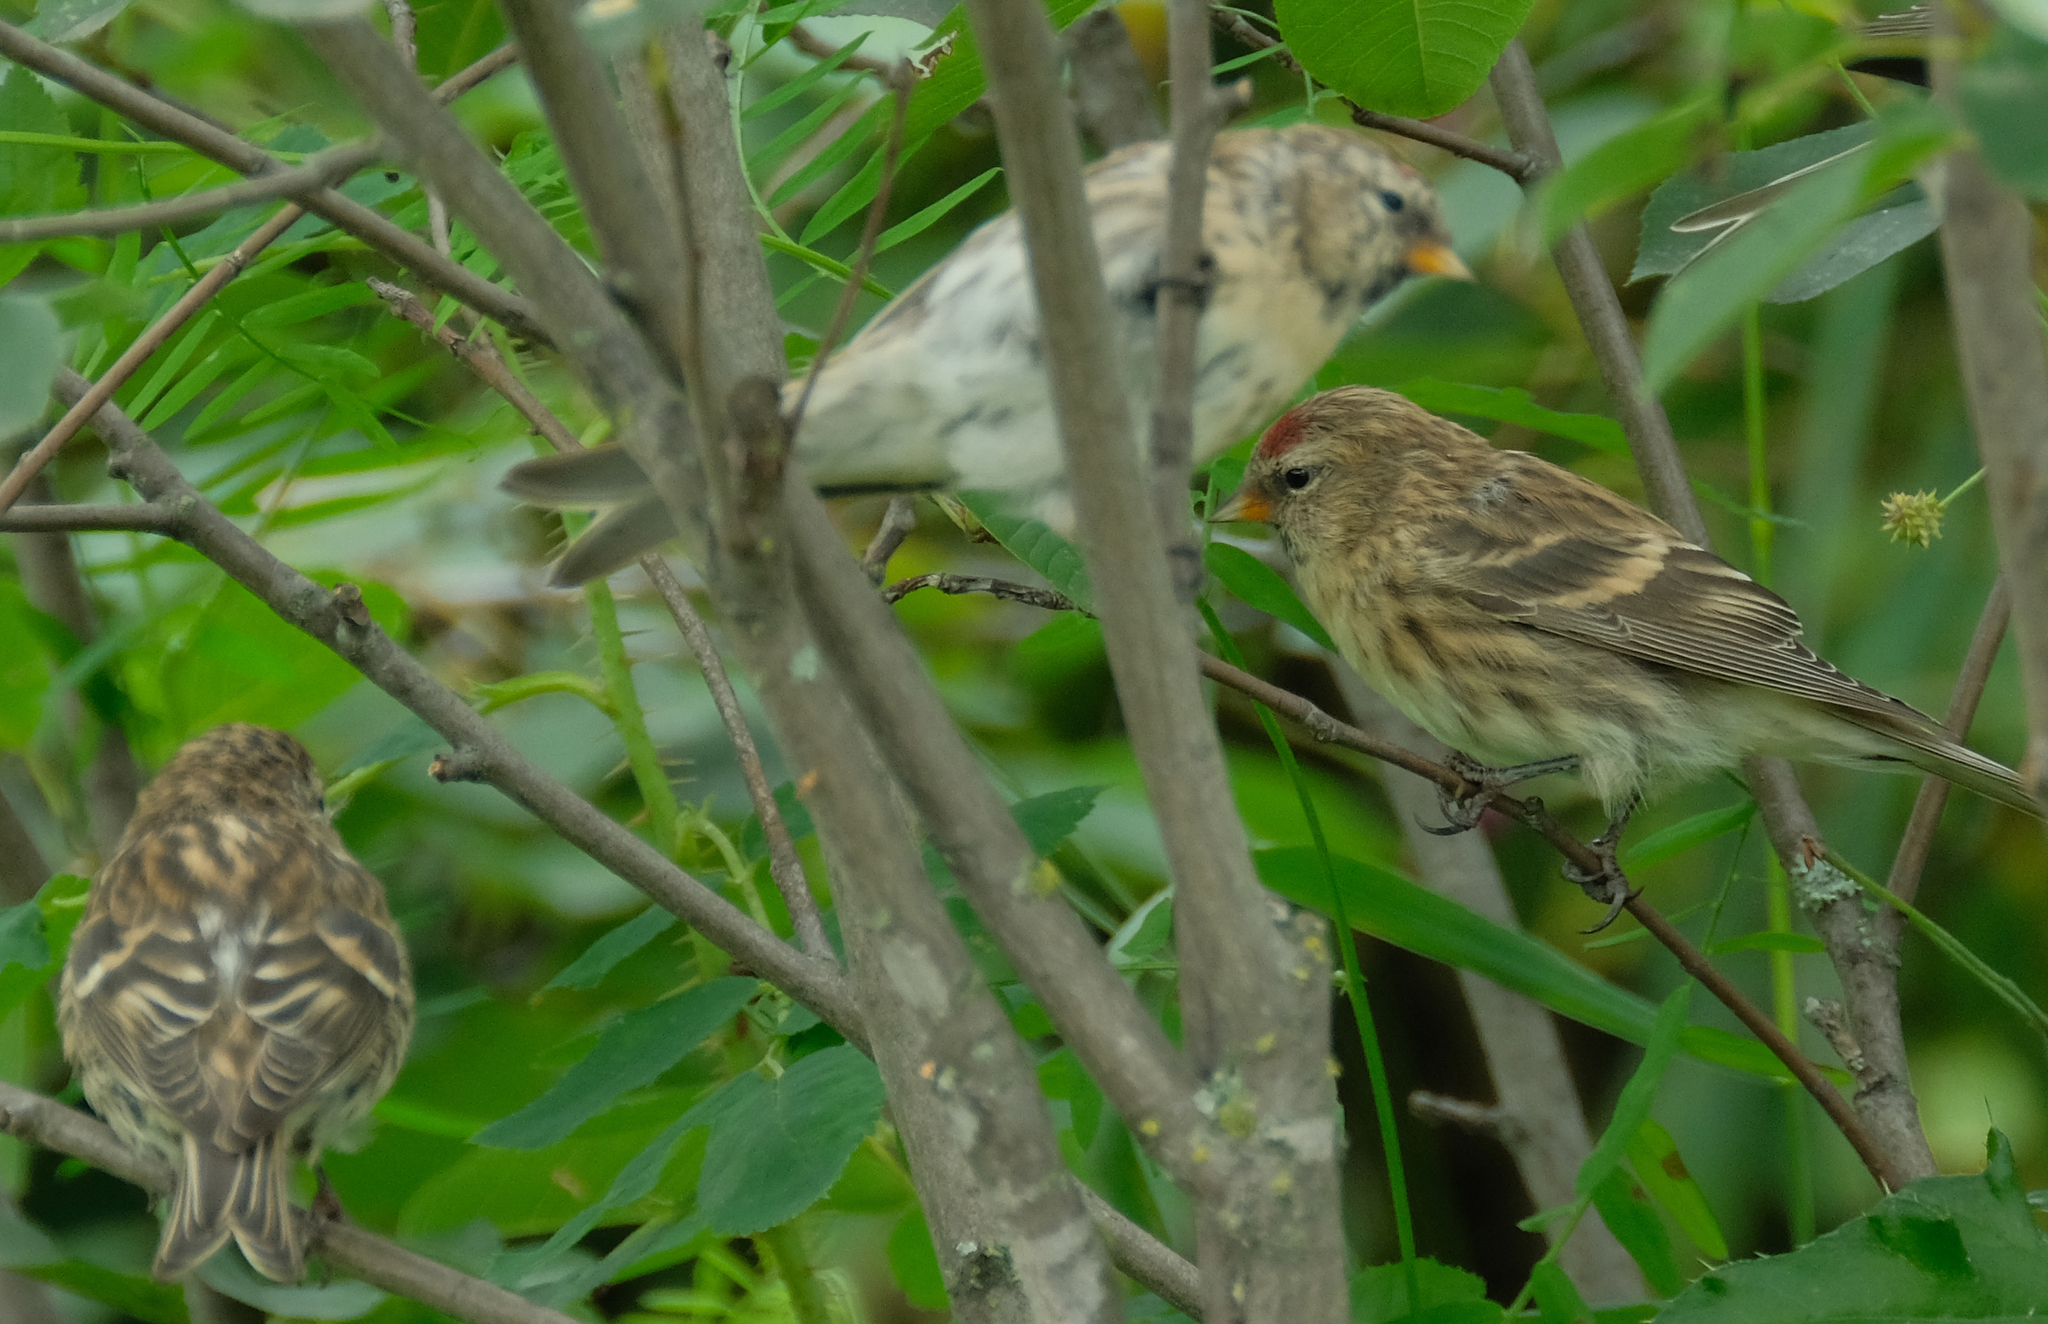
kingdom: Animalia
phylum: Chordata
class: Aves
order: Passeriformes
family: Fringillidae
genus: Acanthis
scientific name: Acanthis flammea
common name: Common redpoll
